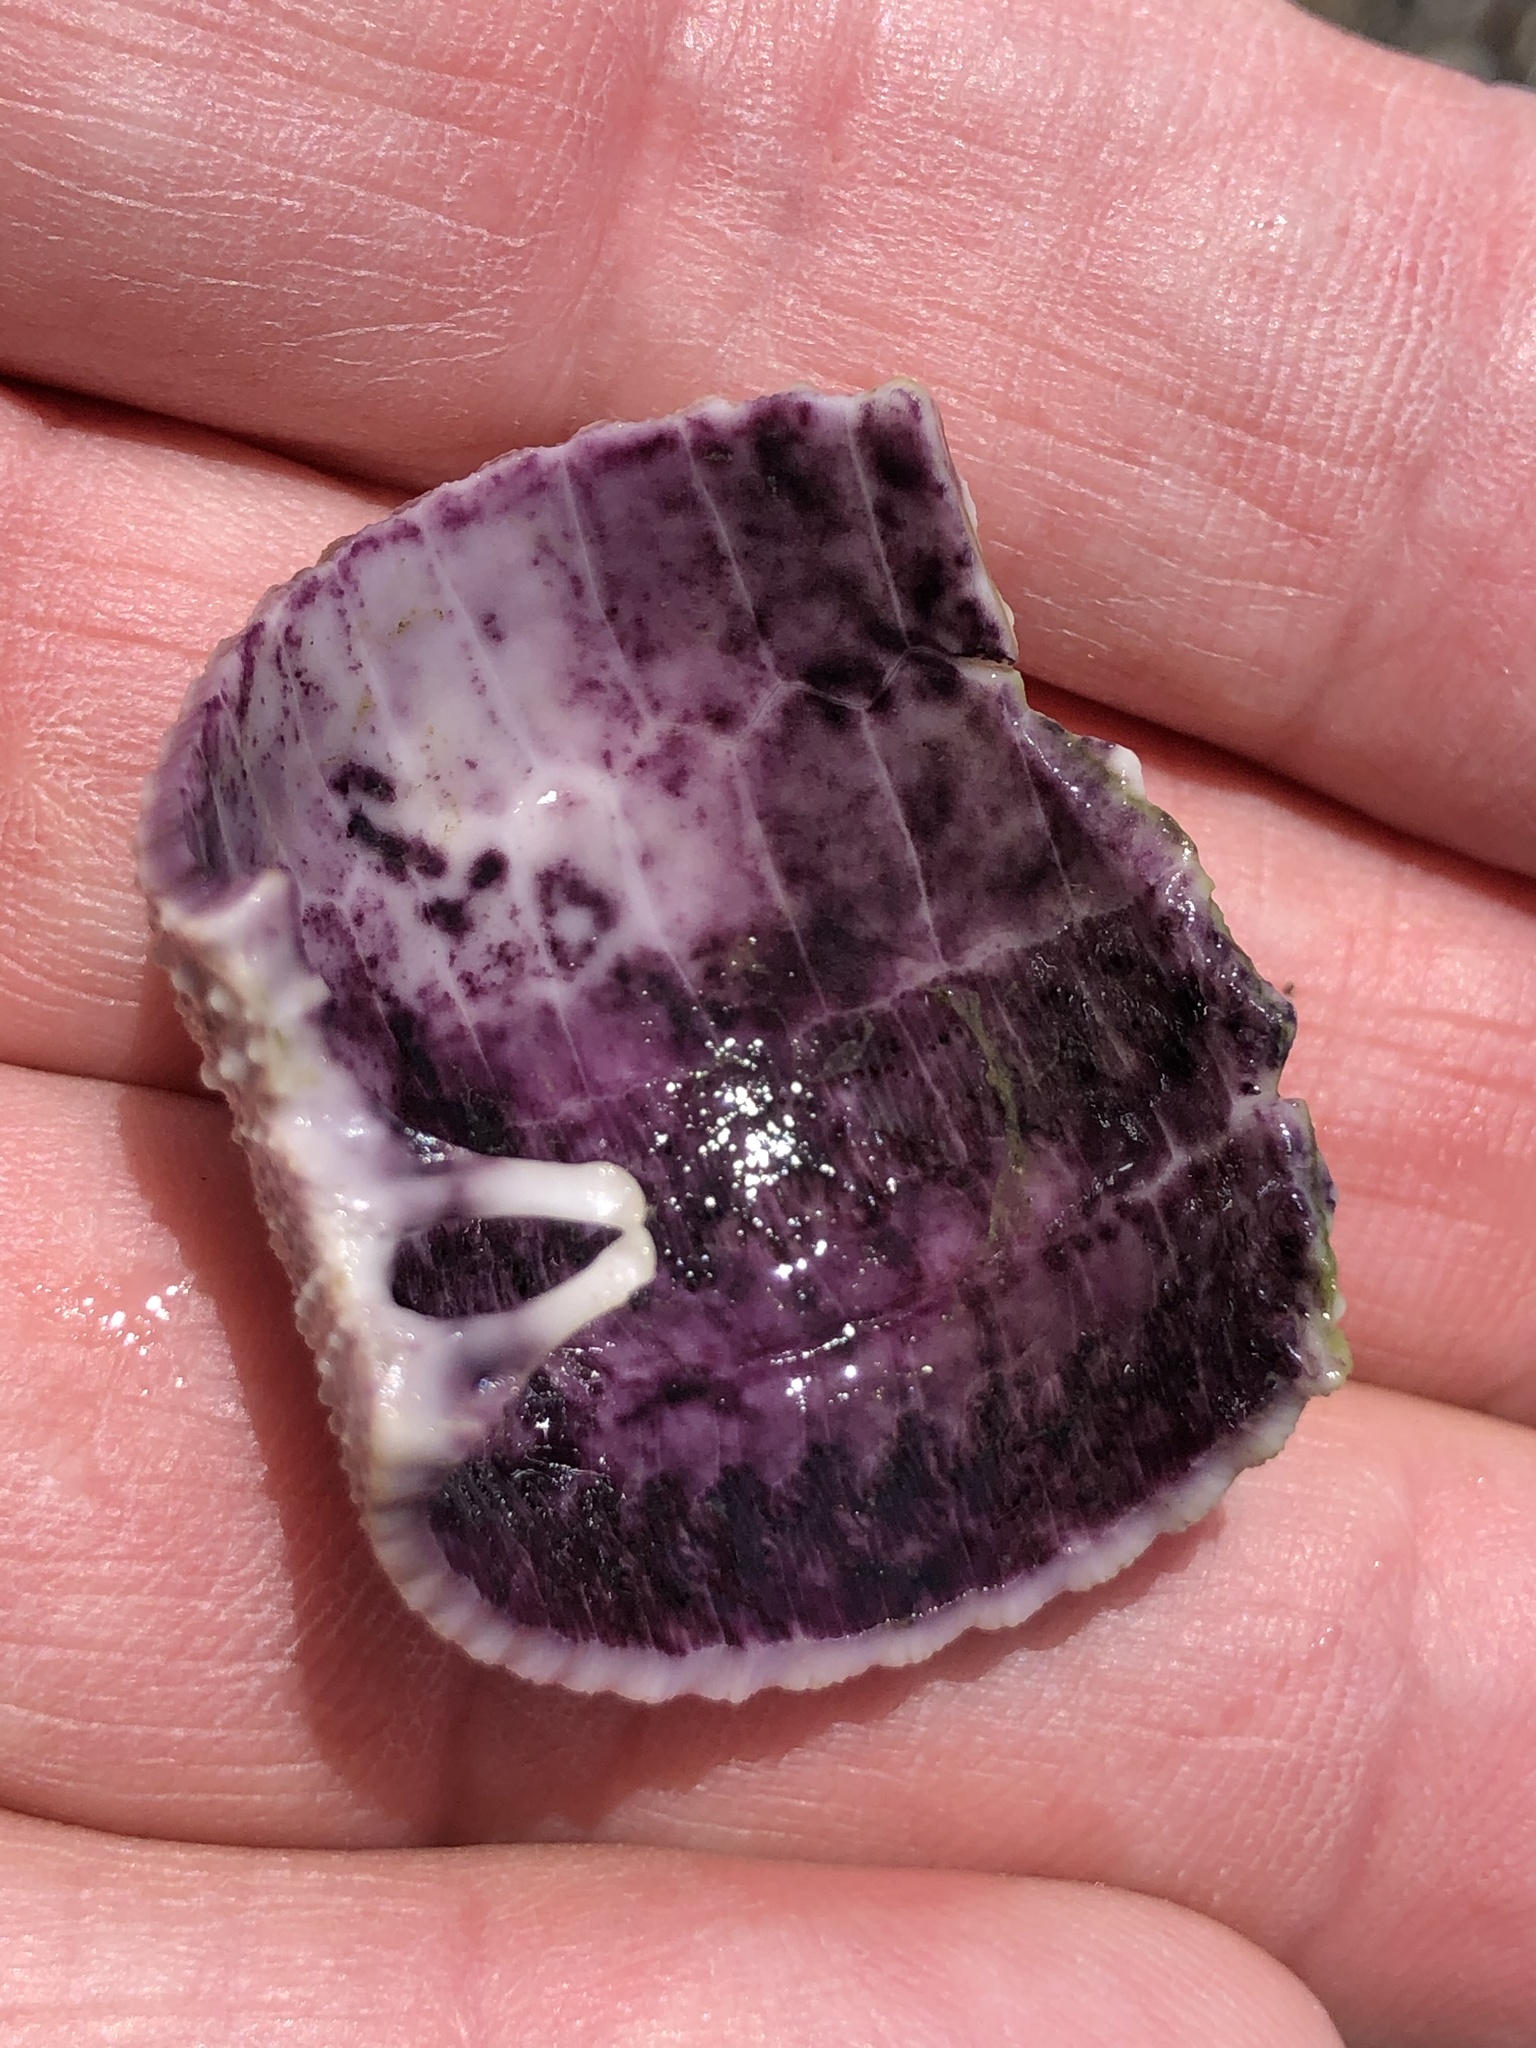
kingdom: Animalia
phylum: Echinodermata
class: Echinoidea
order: Camarodonta
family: Strongylocentrotidae
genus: Strongylocentrotus
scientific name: Strongylocentrotus purpuratus
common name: Purple sea urchin
